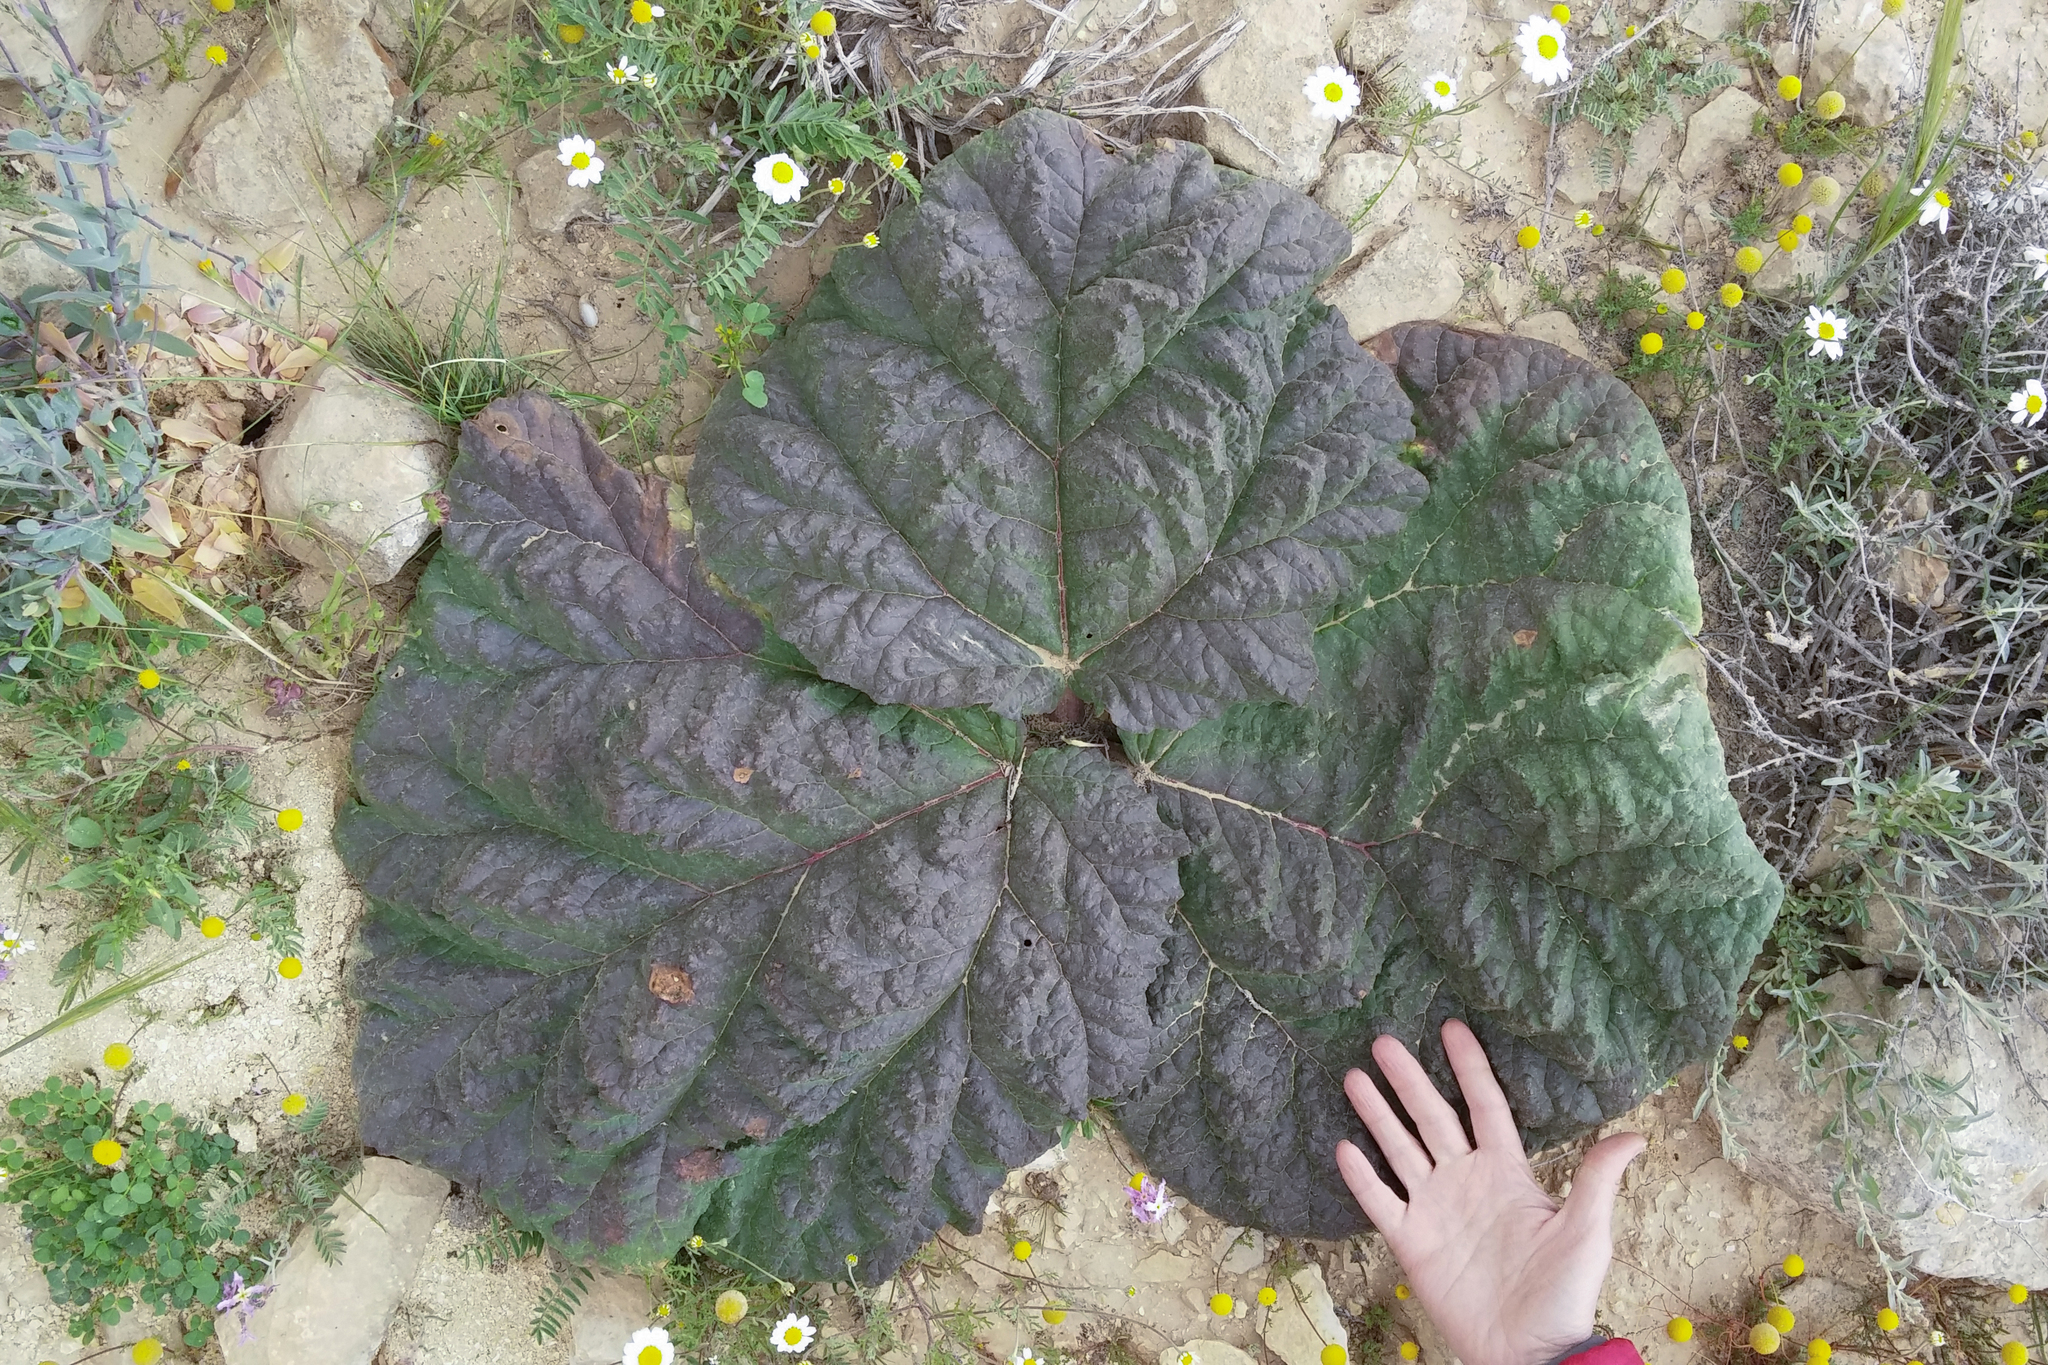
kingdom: Plantae
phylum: Tracheophyta
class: Magnoliopsida
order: Caryophyllales
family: Polygonaceae
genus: Rheum
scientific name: Rheum palaestinum
